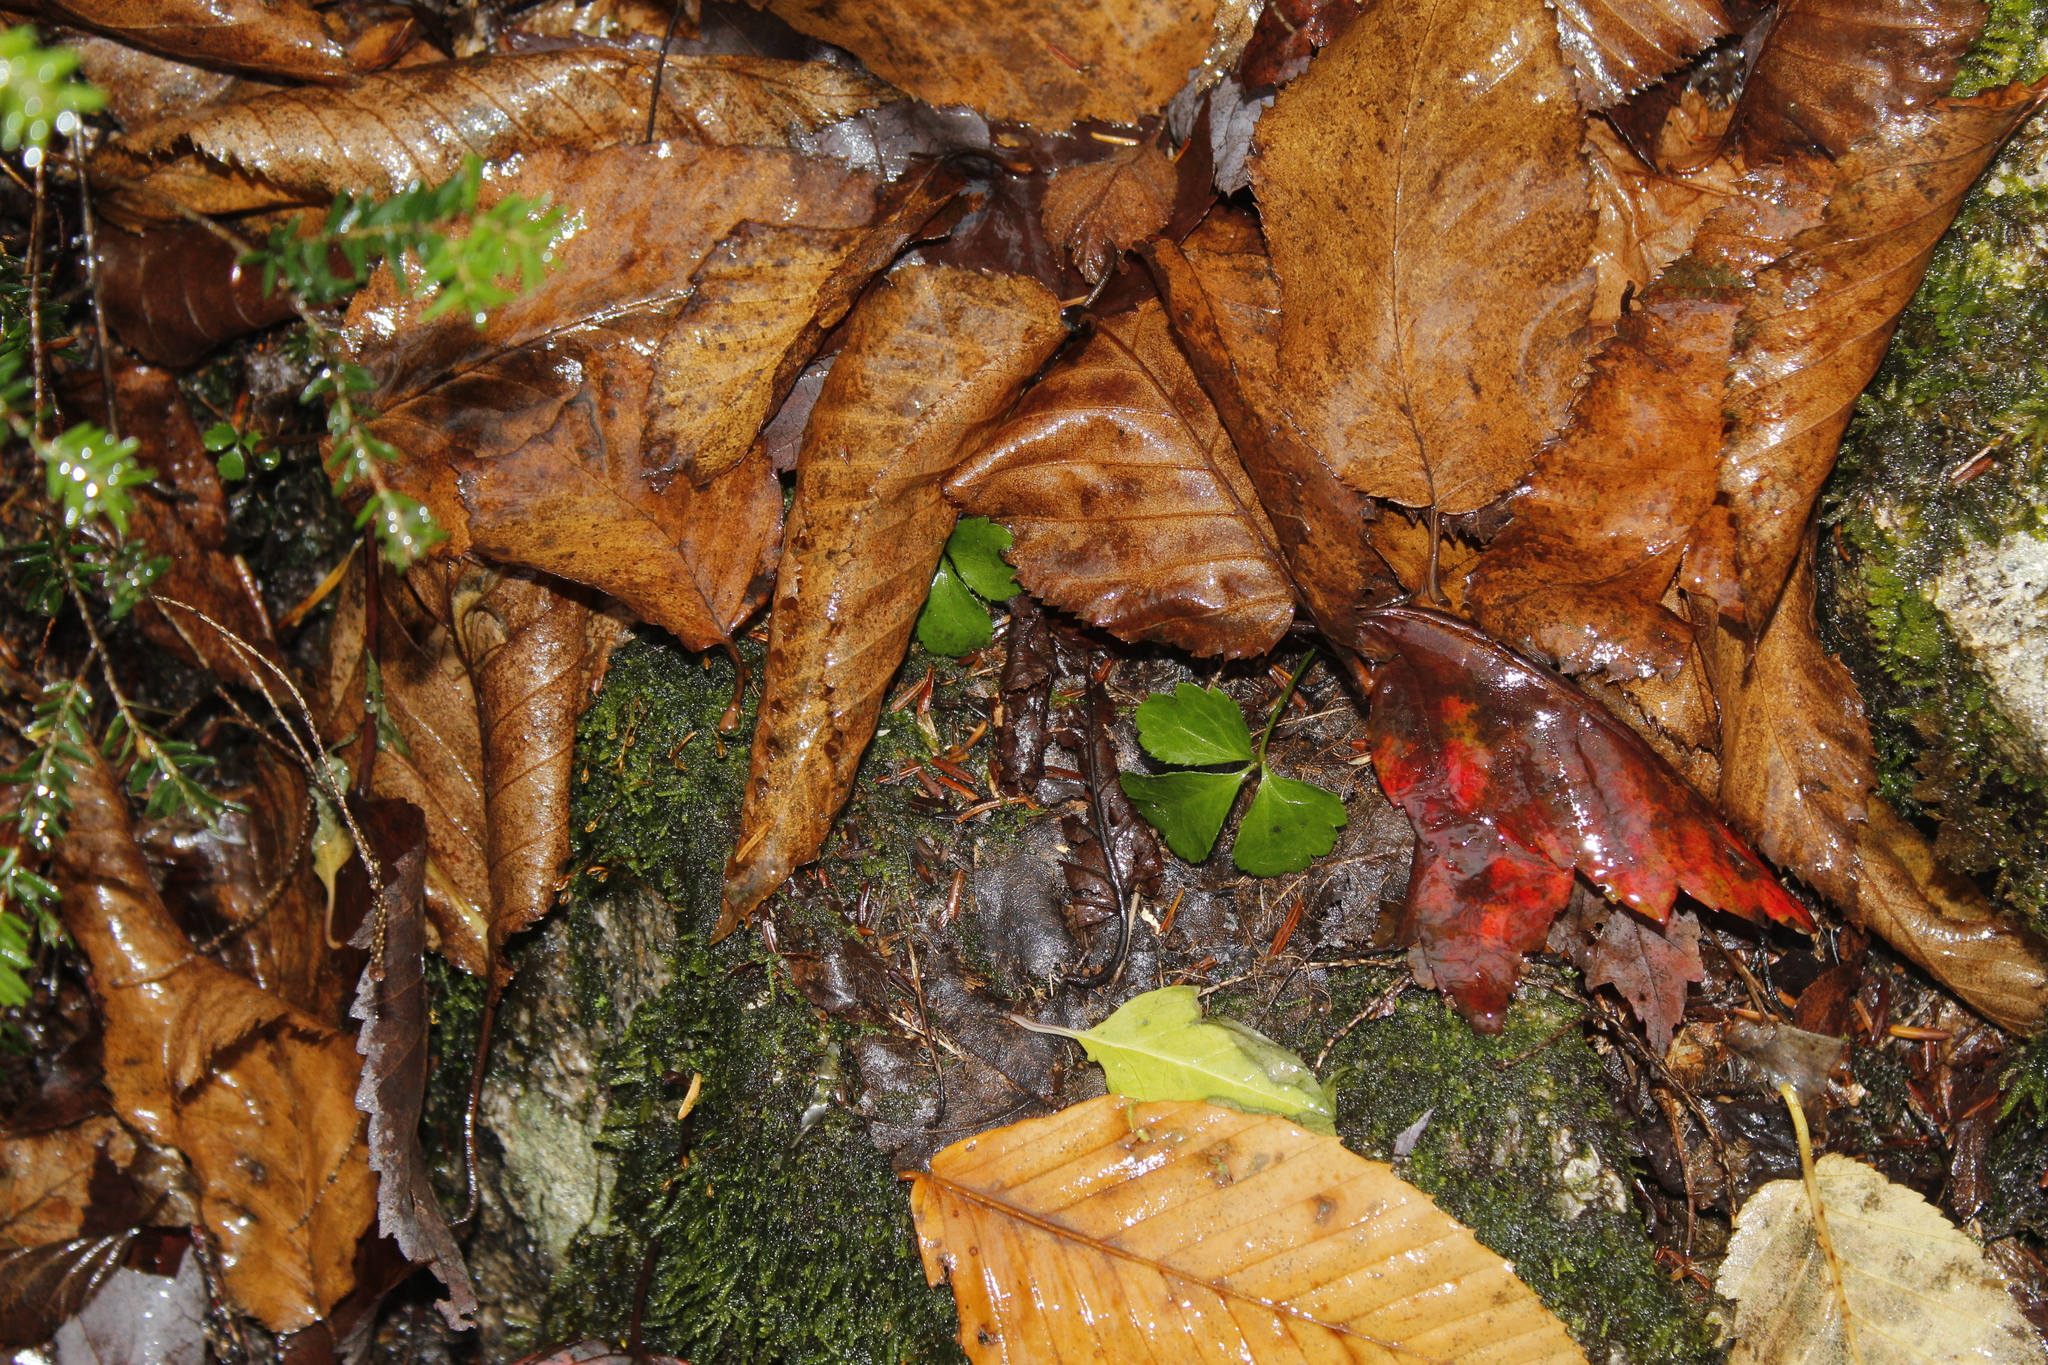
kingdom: Plantae
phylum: Tracheophyta
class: Magnoliopsida
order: Ranunculales
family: Ranunculaceae
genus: Coptis
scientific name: Coptis trifolia
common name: Canker-root
